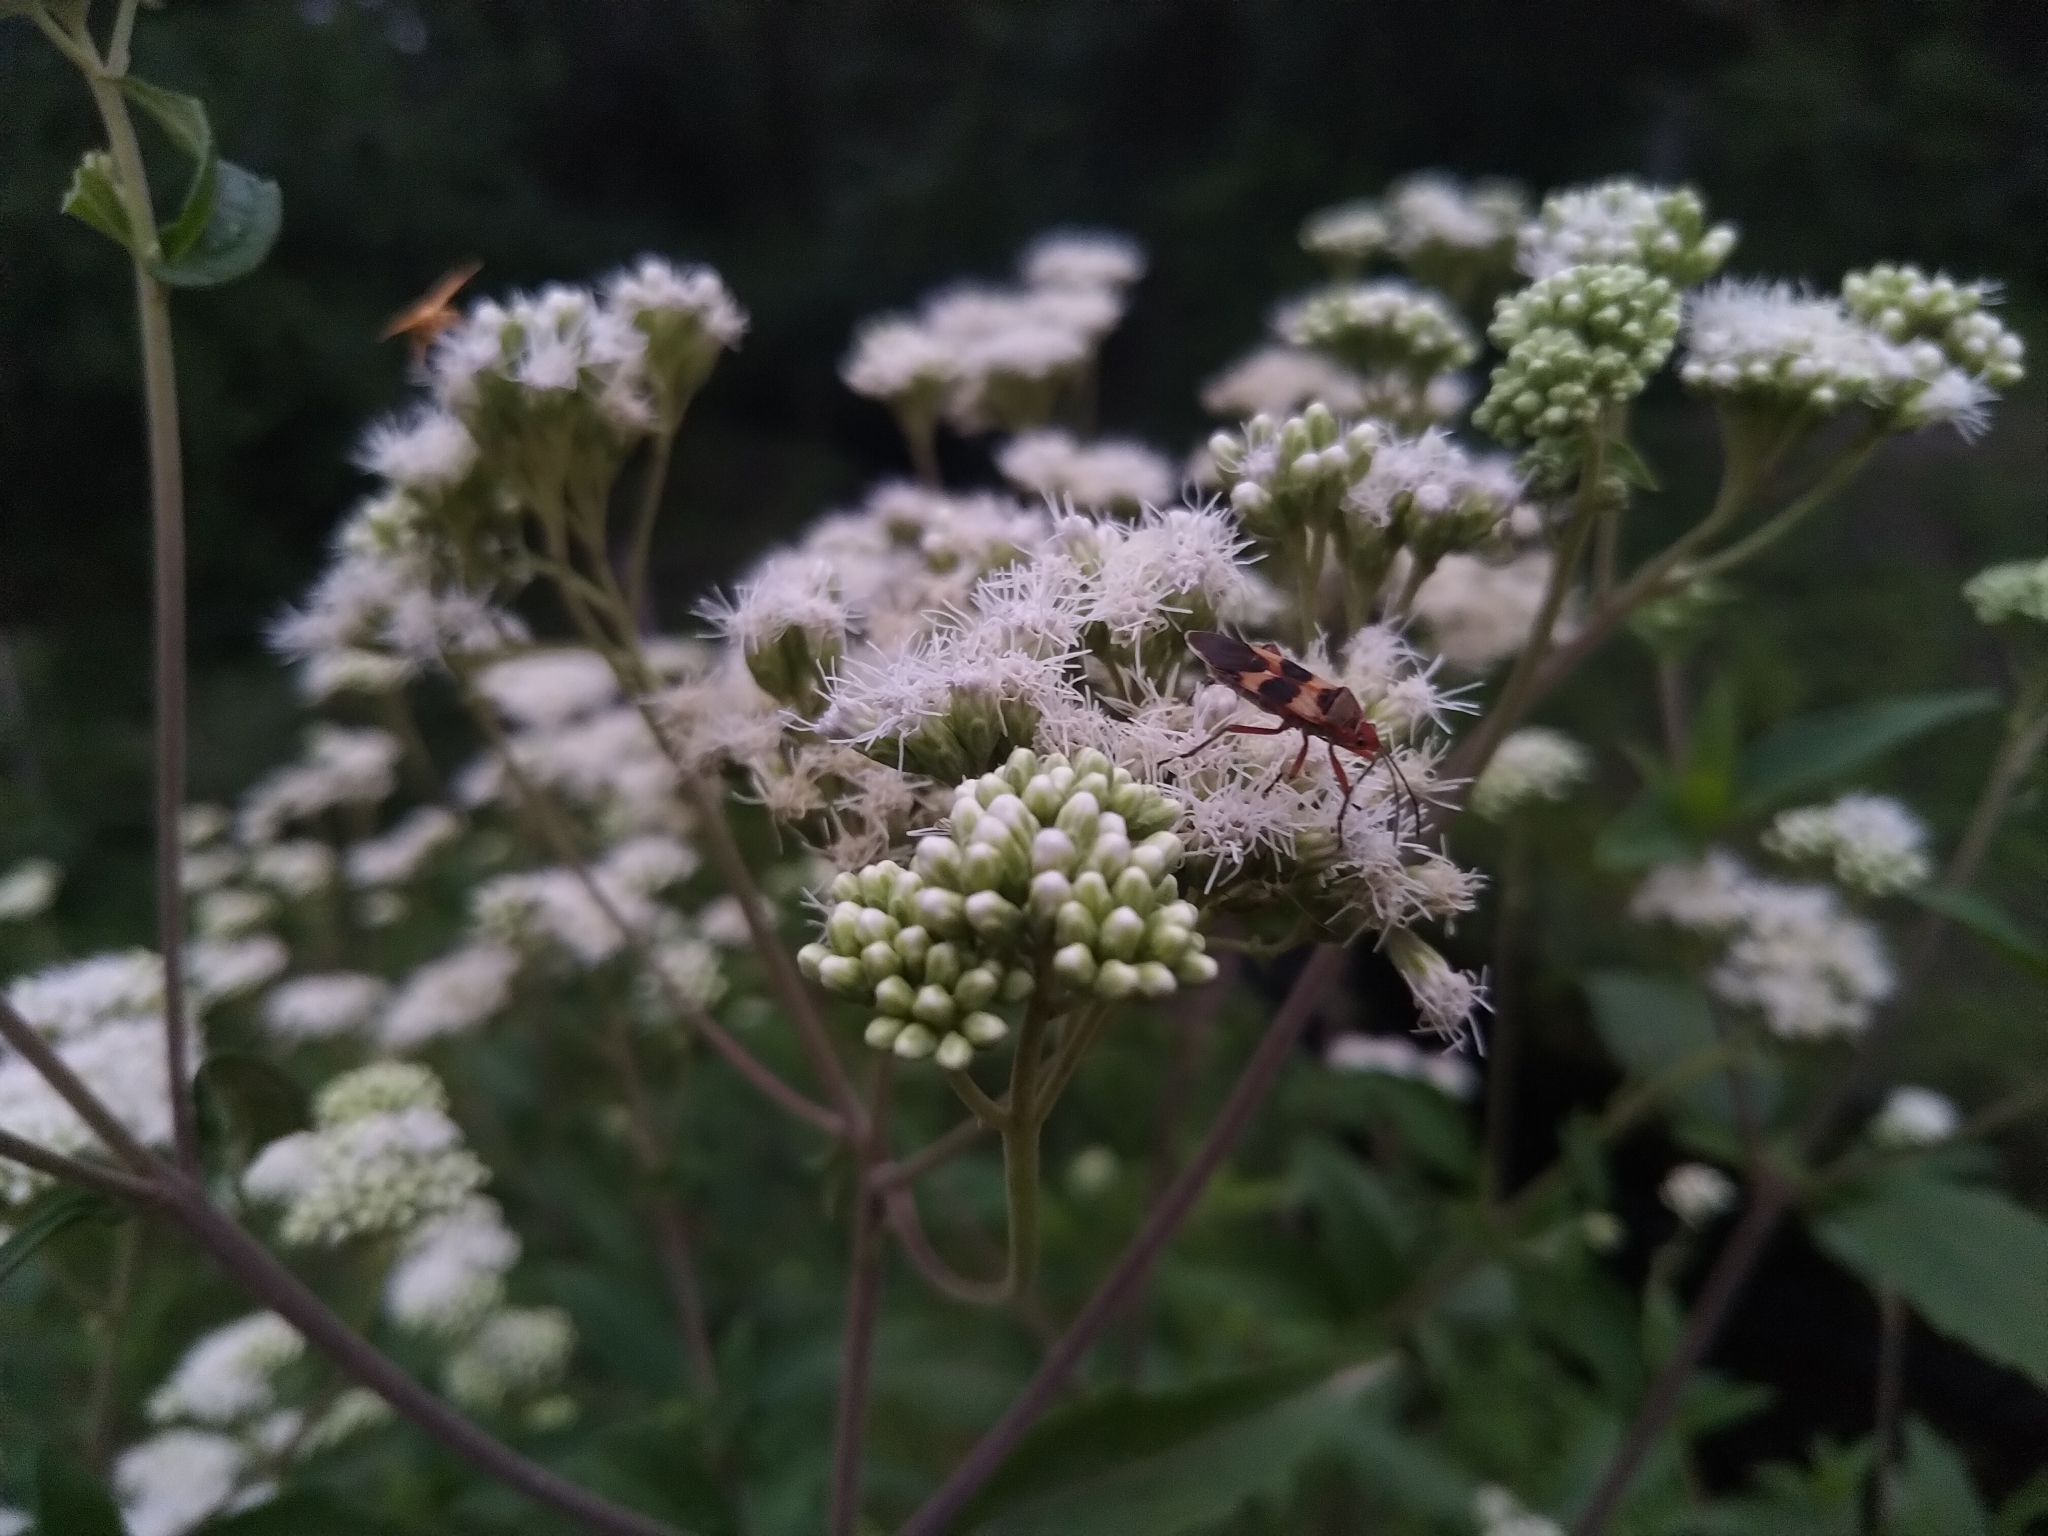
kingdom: Animalia
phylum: Arthropoda
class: Insecta
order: Hemiptera
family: Lygaeidae
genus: Oncopeltus
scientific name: Oncopeltus unifasciatellus
